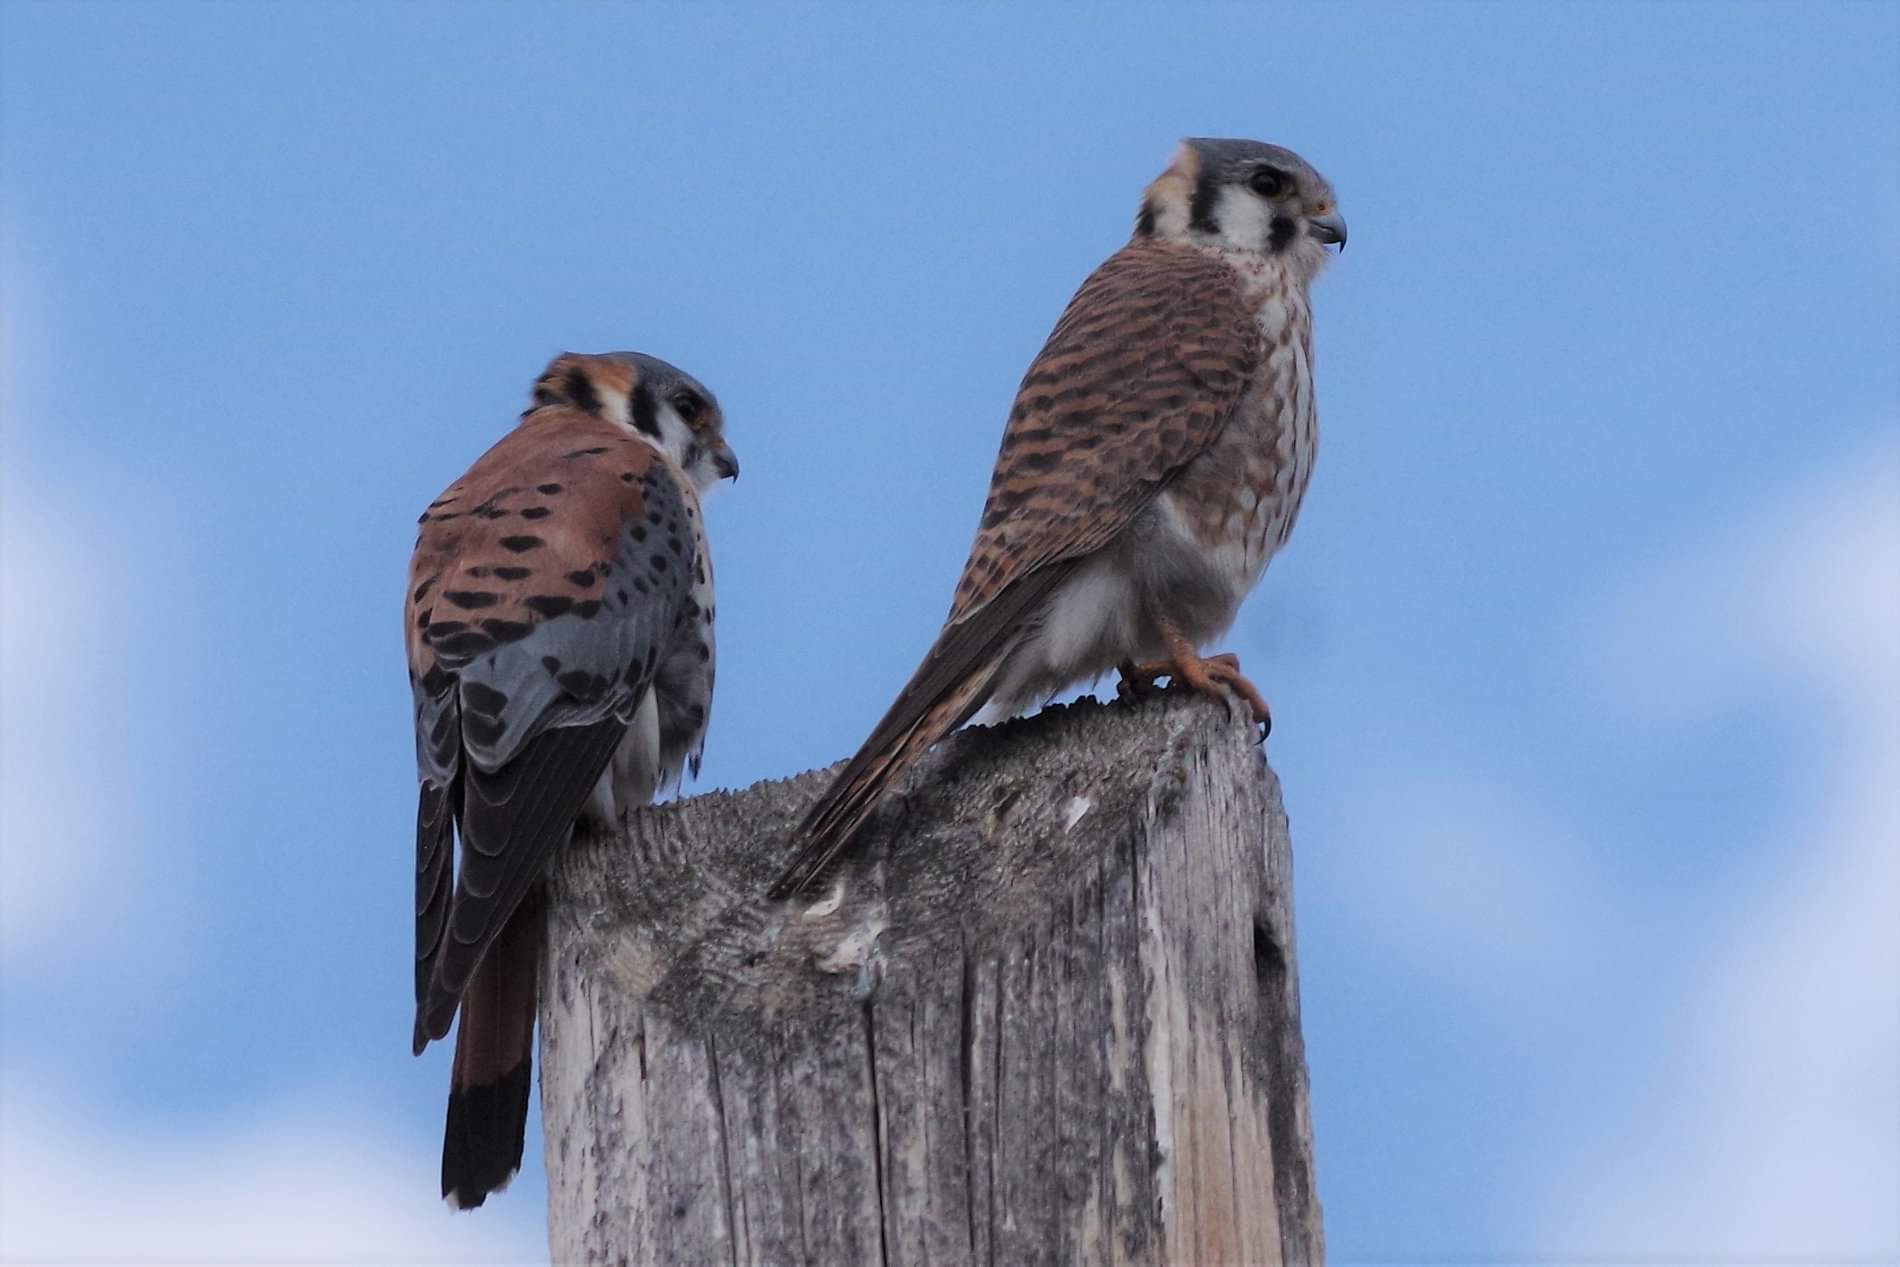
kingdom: Animalia
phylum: Chordata
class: Aves
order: Falconiformes
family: Falconidae
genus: Falco
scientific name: Falco sparverius
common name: American kestrel
